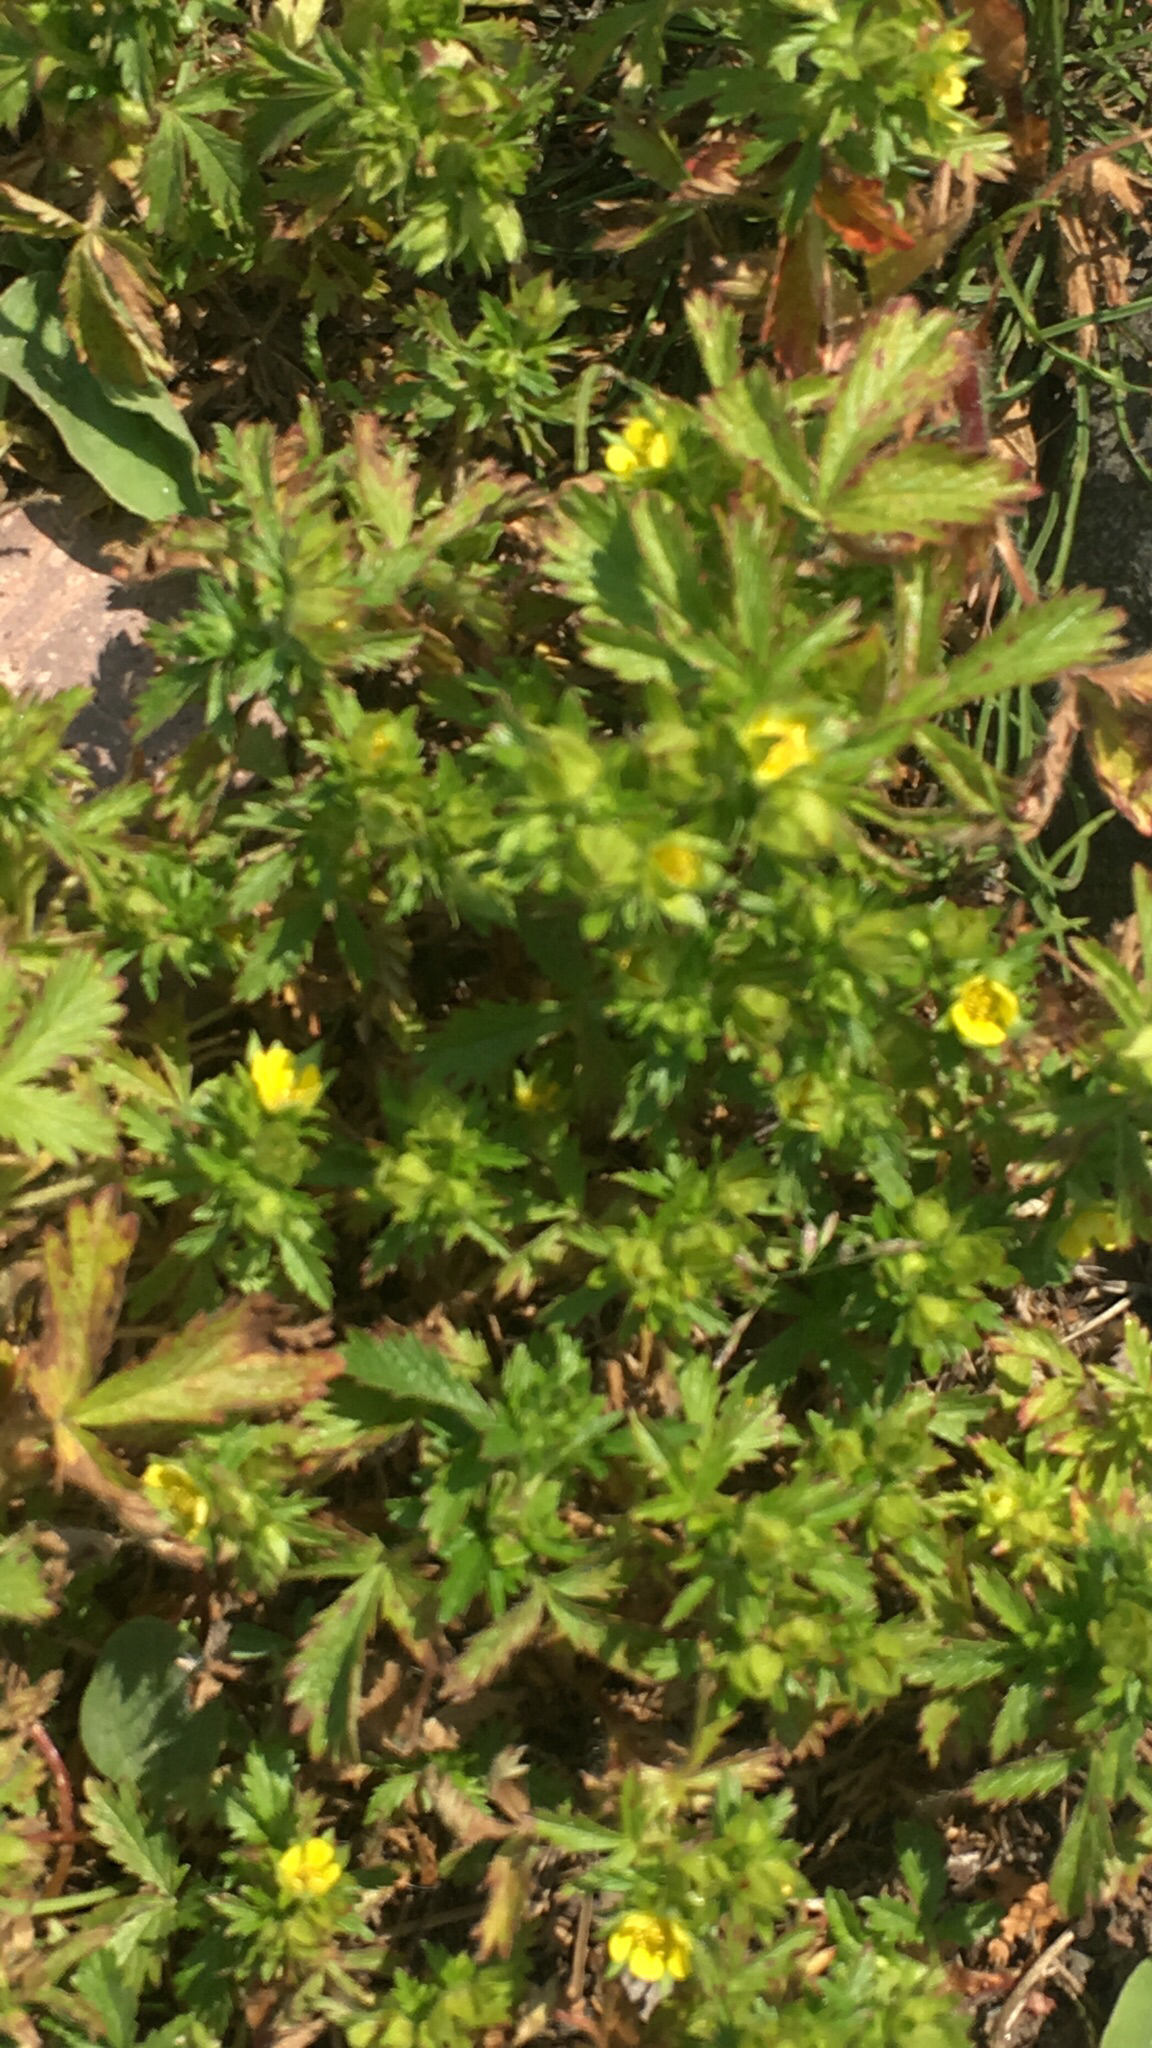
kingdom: Plantae
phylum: Tracheophyta
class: Magnoliopsida
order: Rosales
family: Rosaceae
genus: Potentilla
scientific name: Potentilla norvegica
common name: Ternate-leaved cinquefoil
